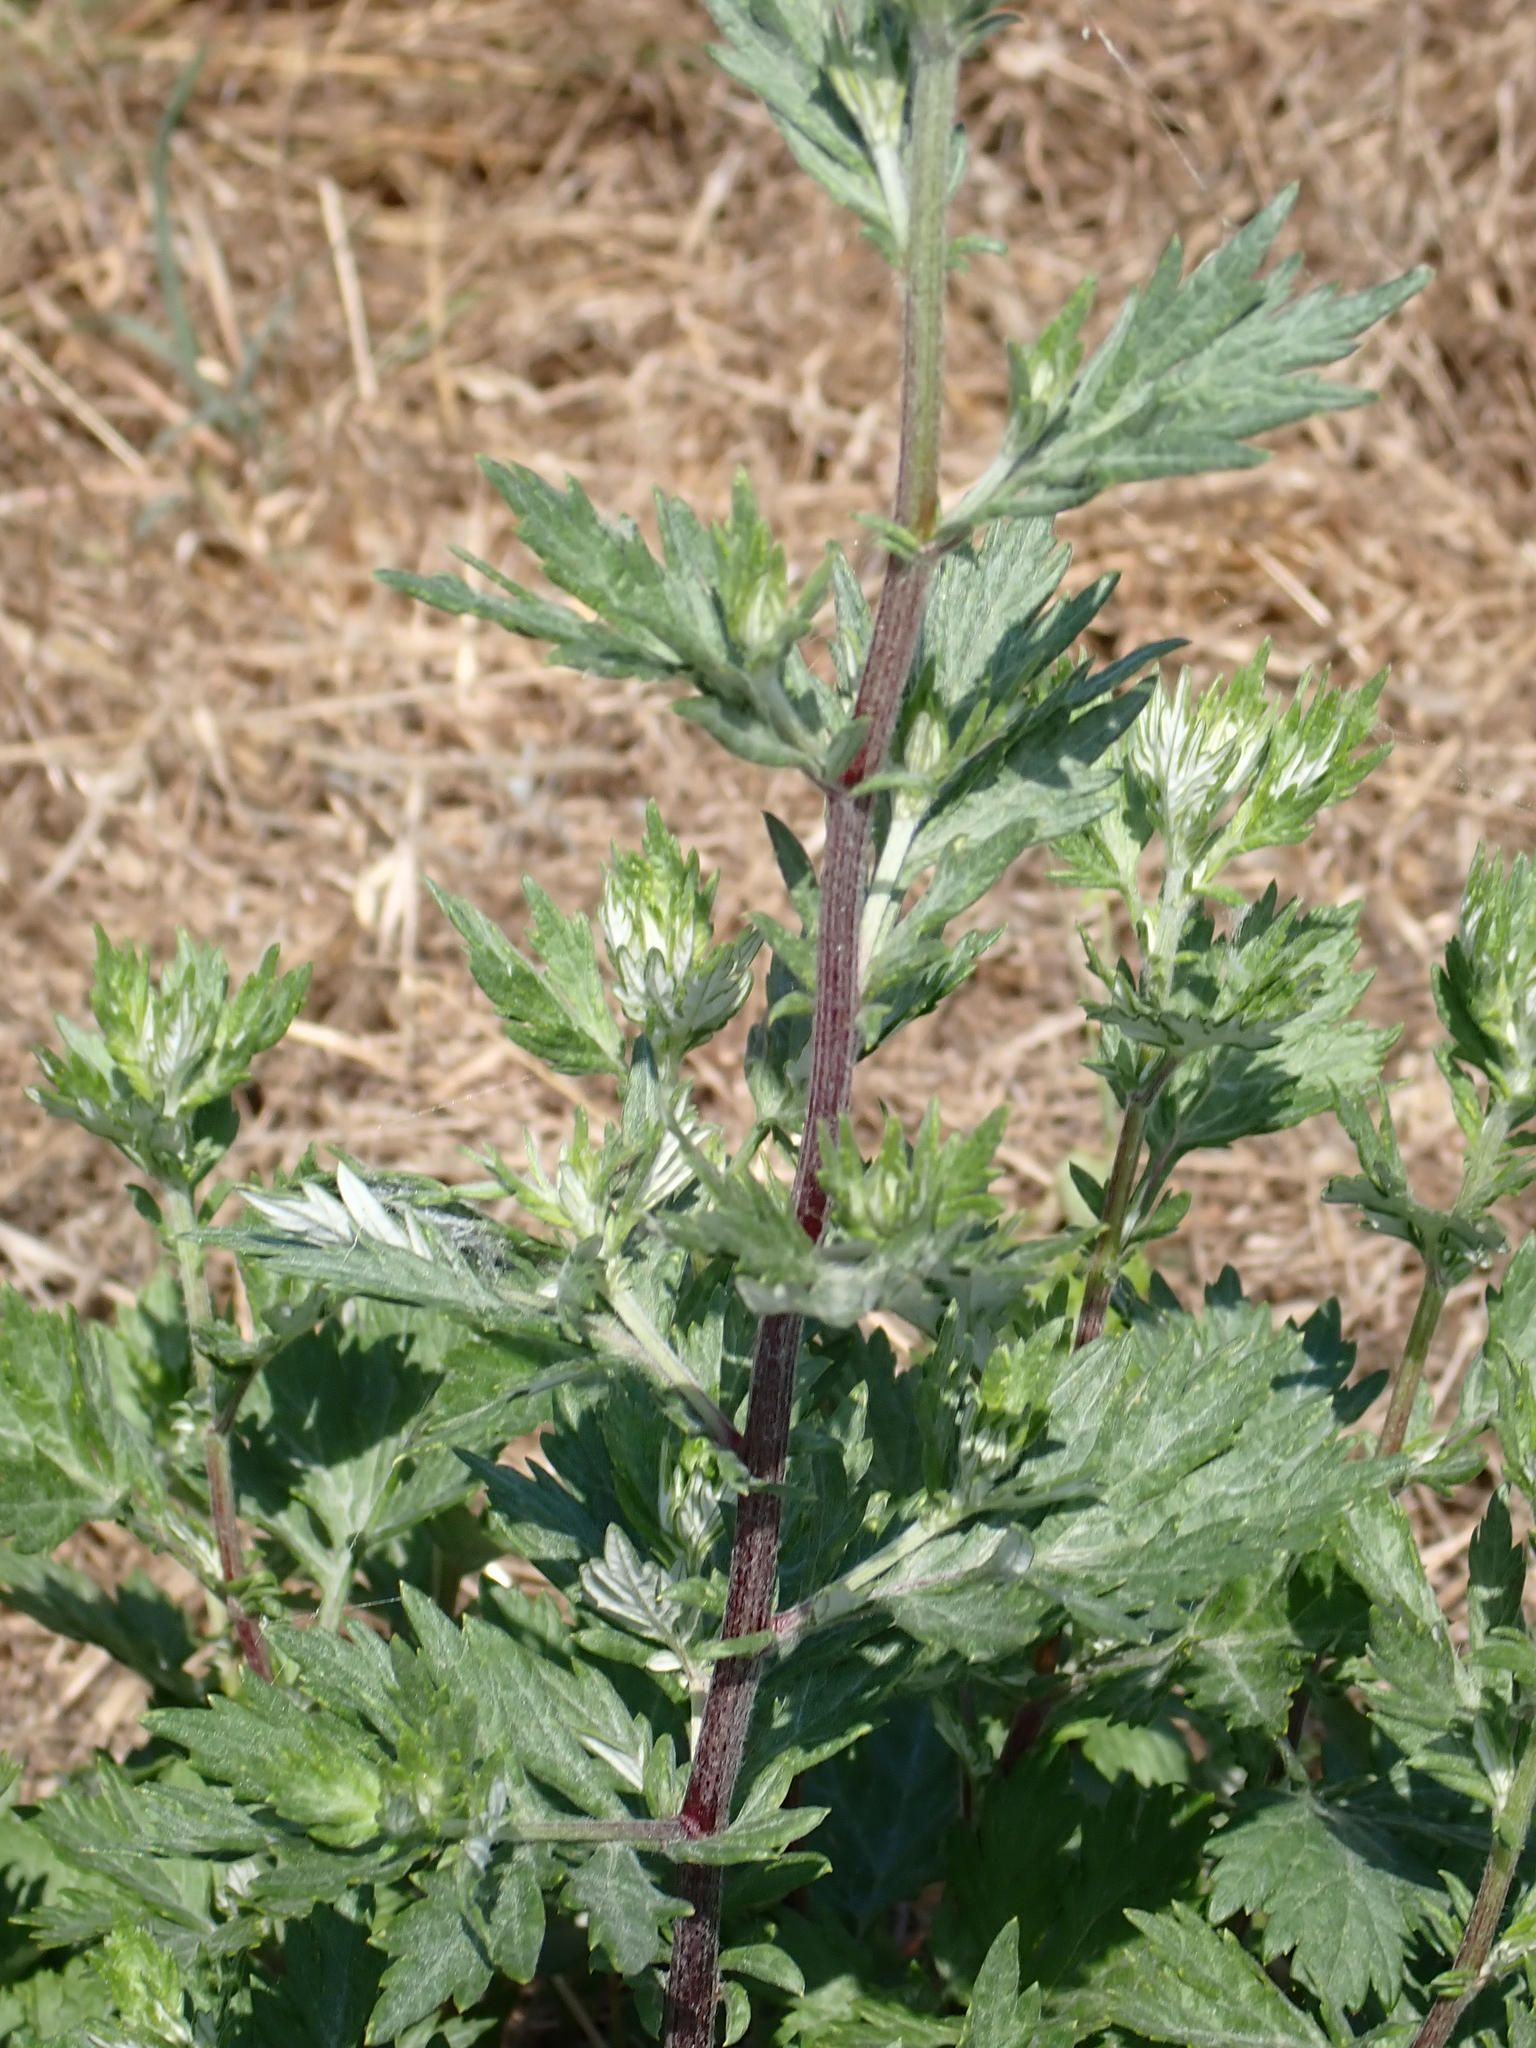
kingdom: Plantae
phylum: Tracheophyta
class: Magnoliopsida
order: Asterales
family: Asteraceae
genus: Artemisia
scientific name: Artemisia vulgaris
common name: Mugwort
